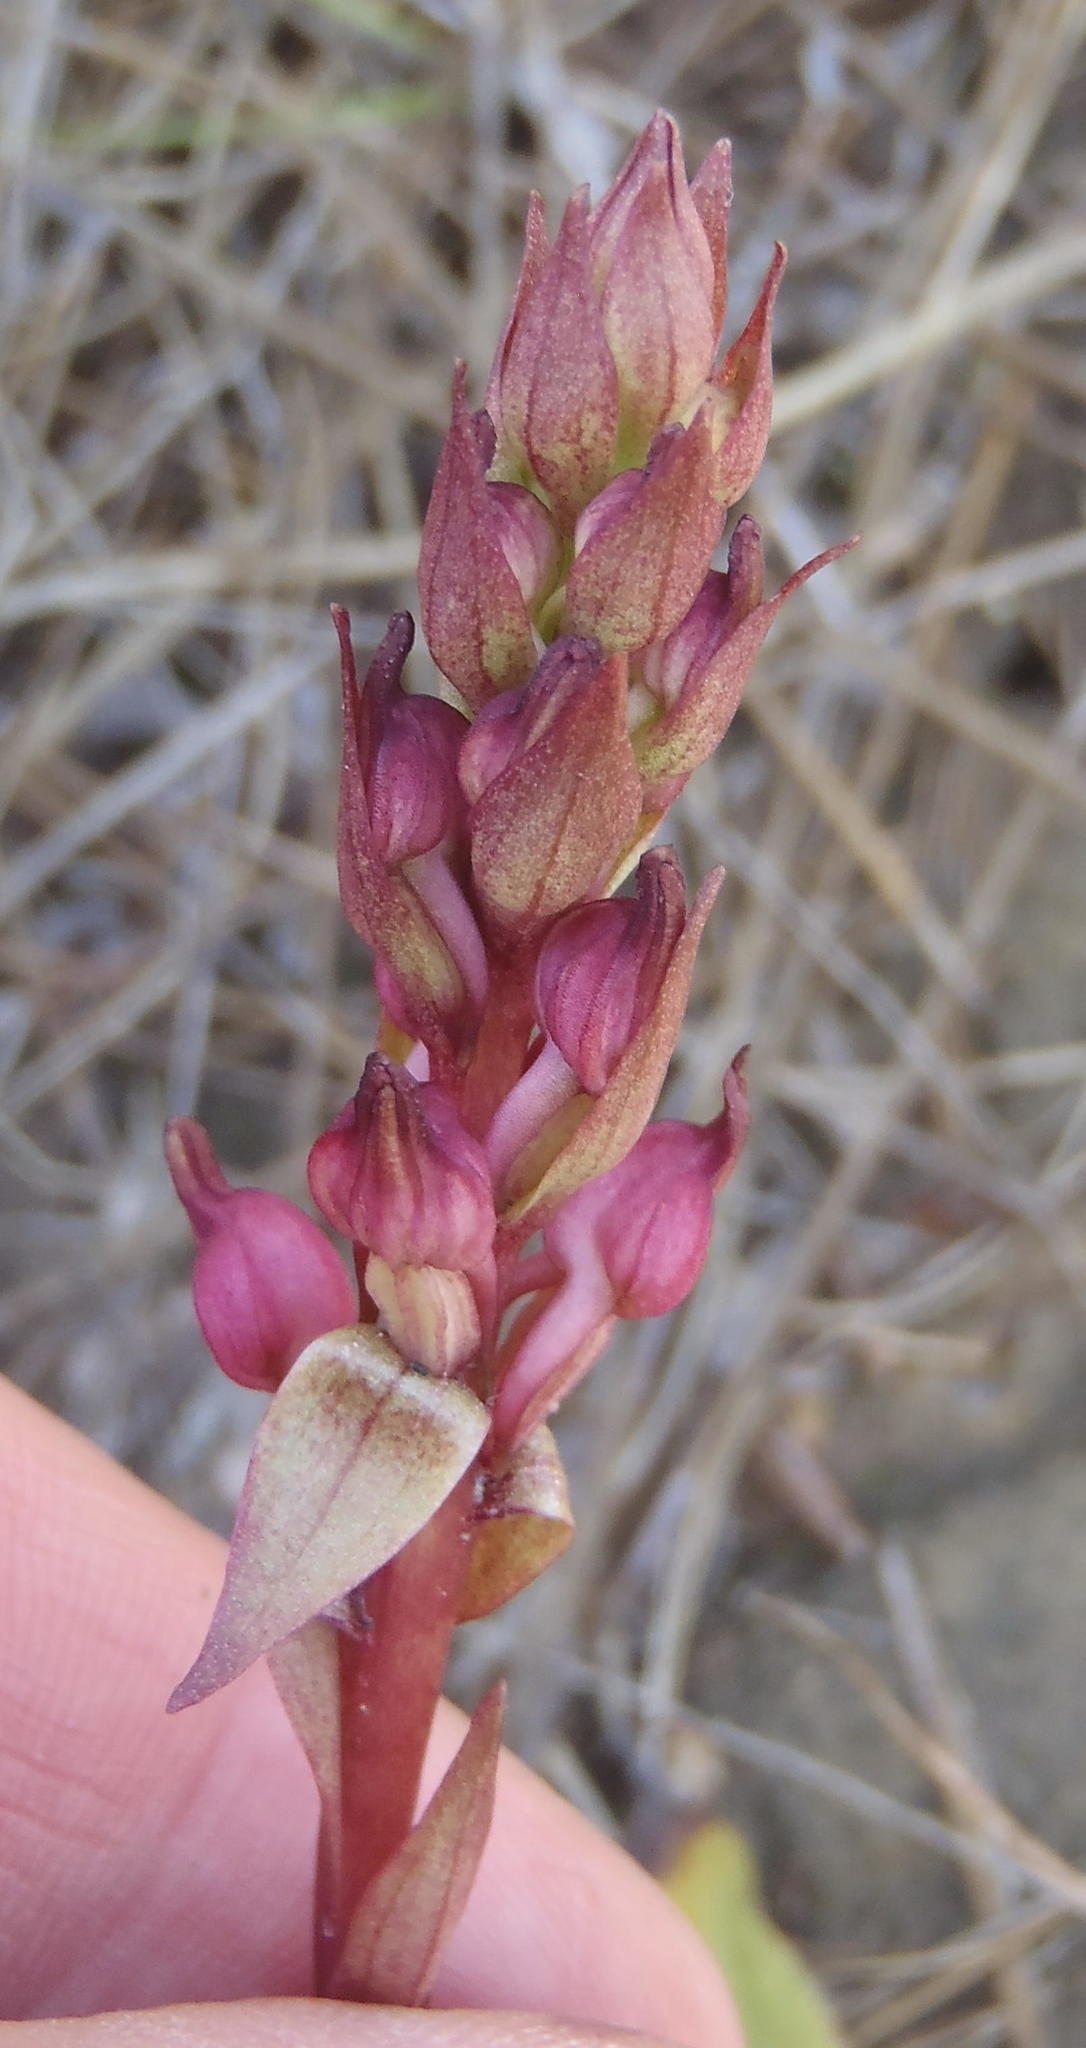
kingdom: Plantae
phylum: Tracheophyta
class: Liliopsida
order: Asparagales
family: Orchidaceae
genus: Satyrium
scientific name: Satyrium ligulatum
